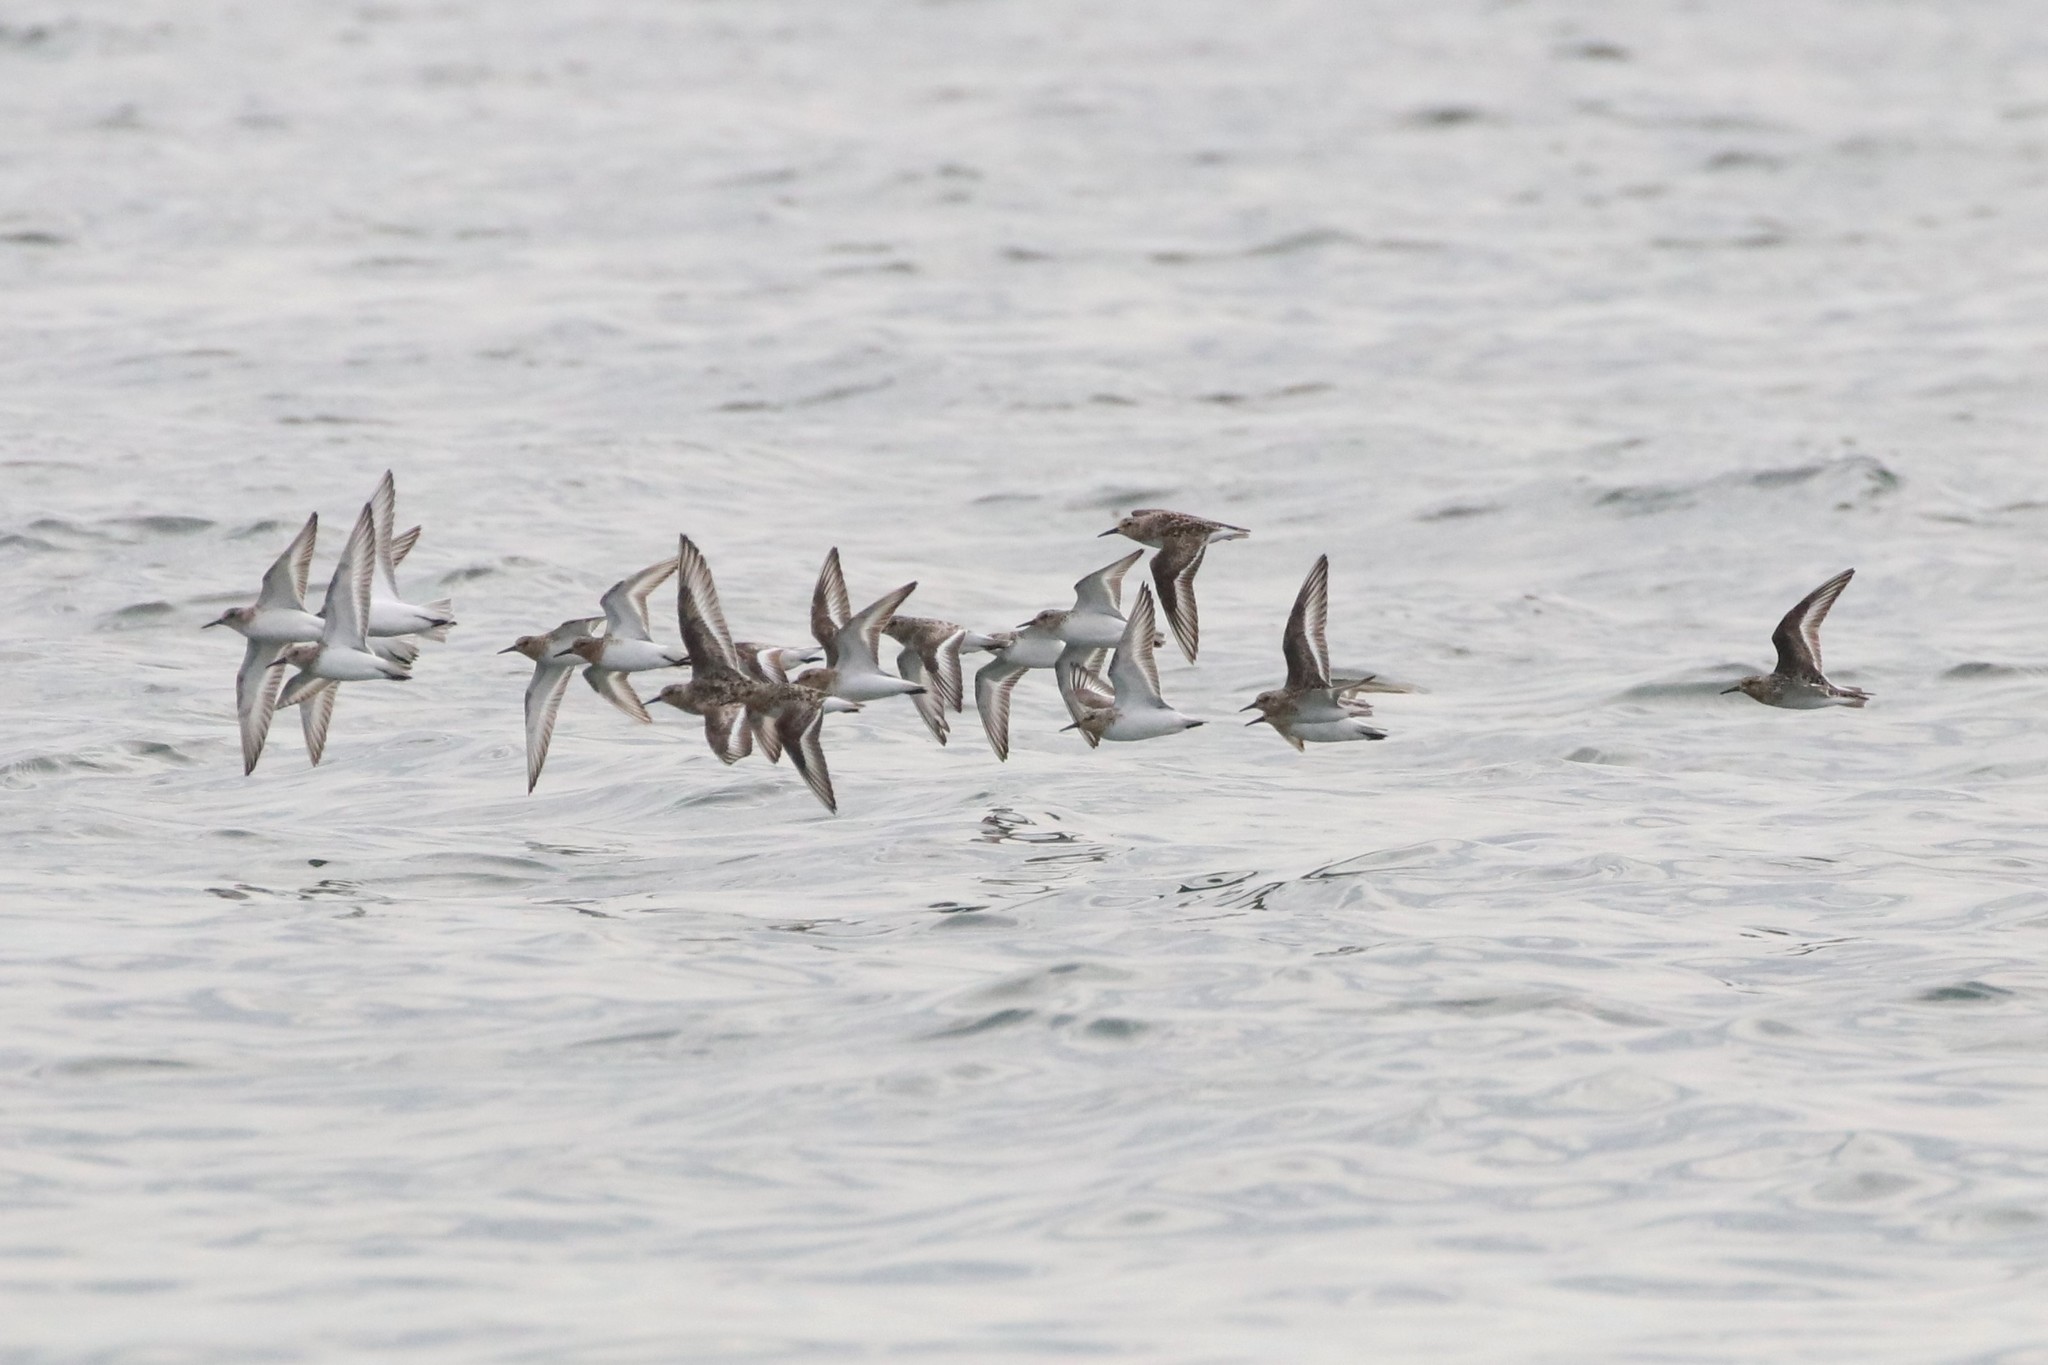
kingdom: Animalia
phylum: Chordata
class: Aves
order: Charadriiformes
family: Scolopacidae
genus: Calidris
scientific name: Calidris alba
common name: Sanderling
